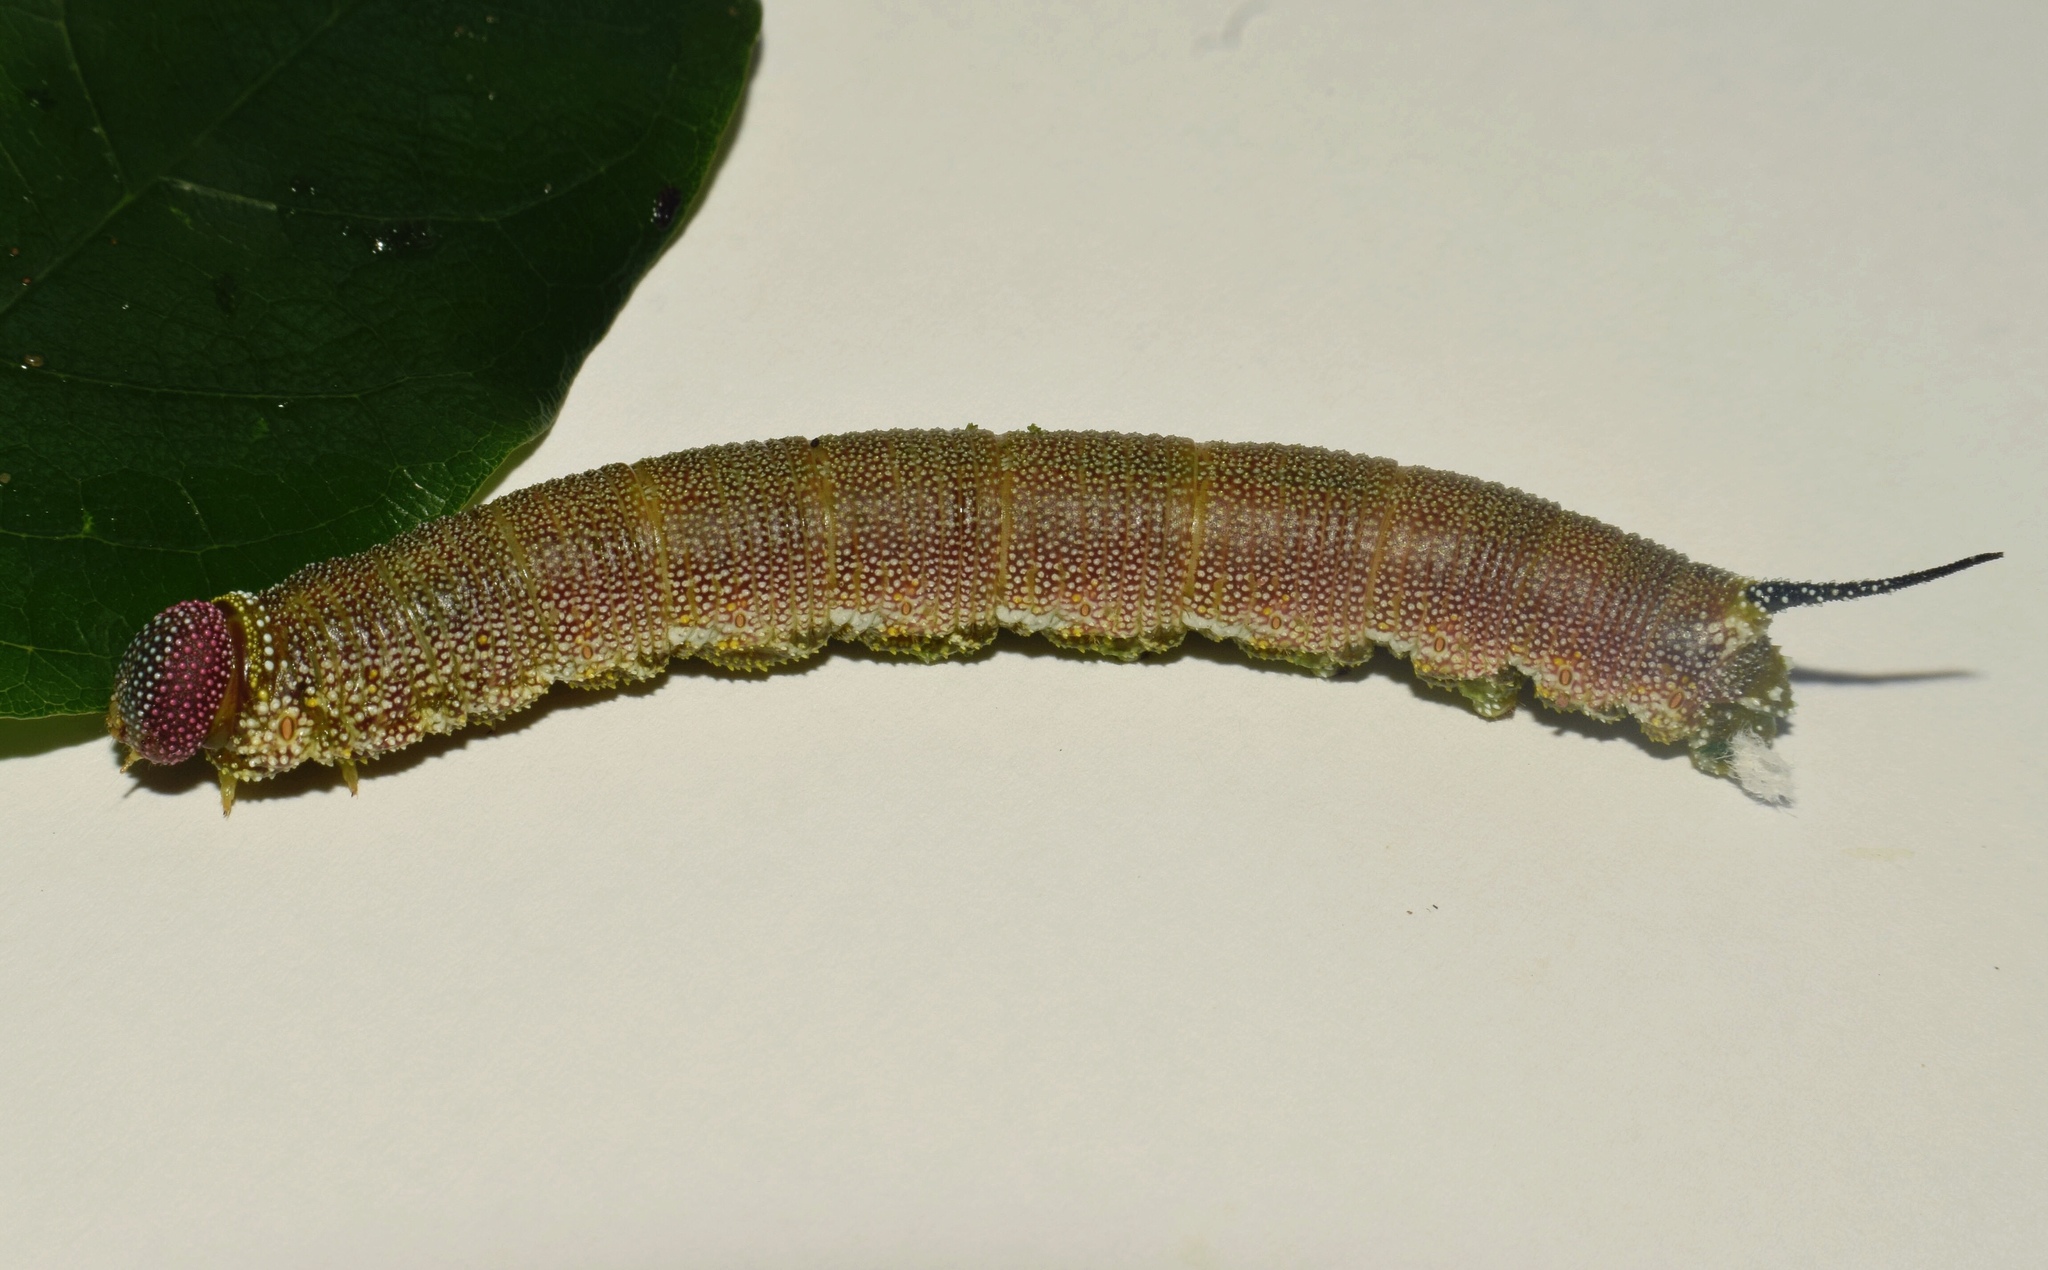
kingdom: Animalia
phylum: Arthropoda
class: Insecta
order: Lepidoptera
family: Sphingidae
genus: Pseudandriasa
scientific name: Pseudandriasa mutata
